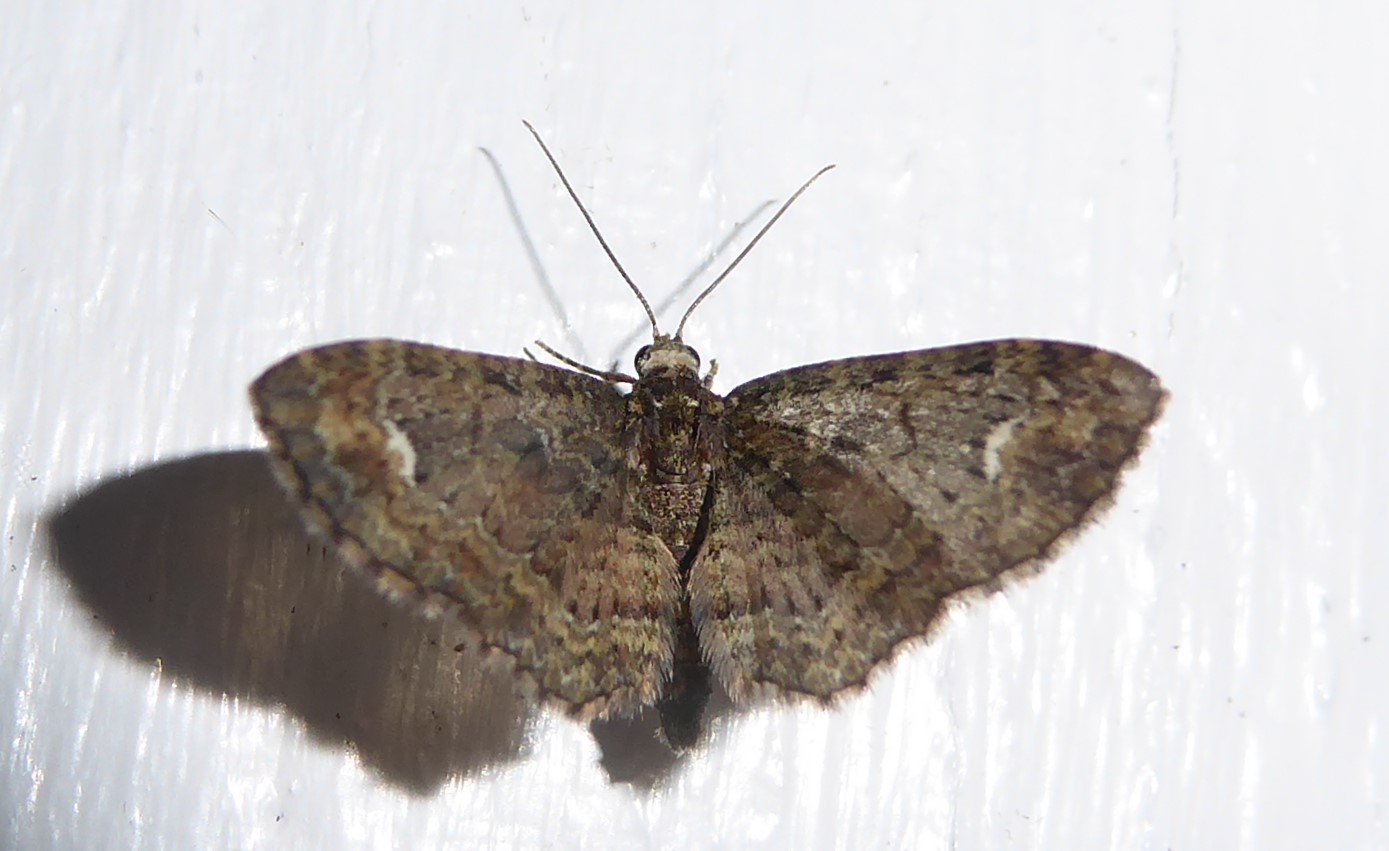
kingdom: Animalia
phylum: Arthropoda
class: Insecta
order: Lepidoptera
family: Geometridae
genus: Pasiphilodes
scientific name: Pasiphilodes testulata
